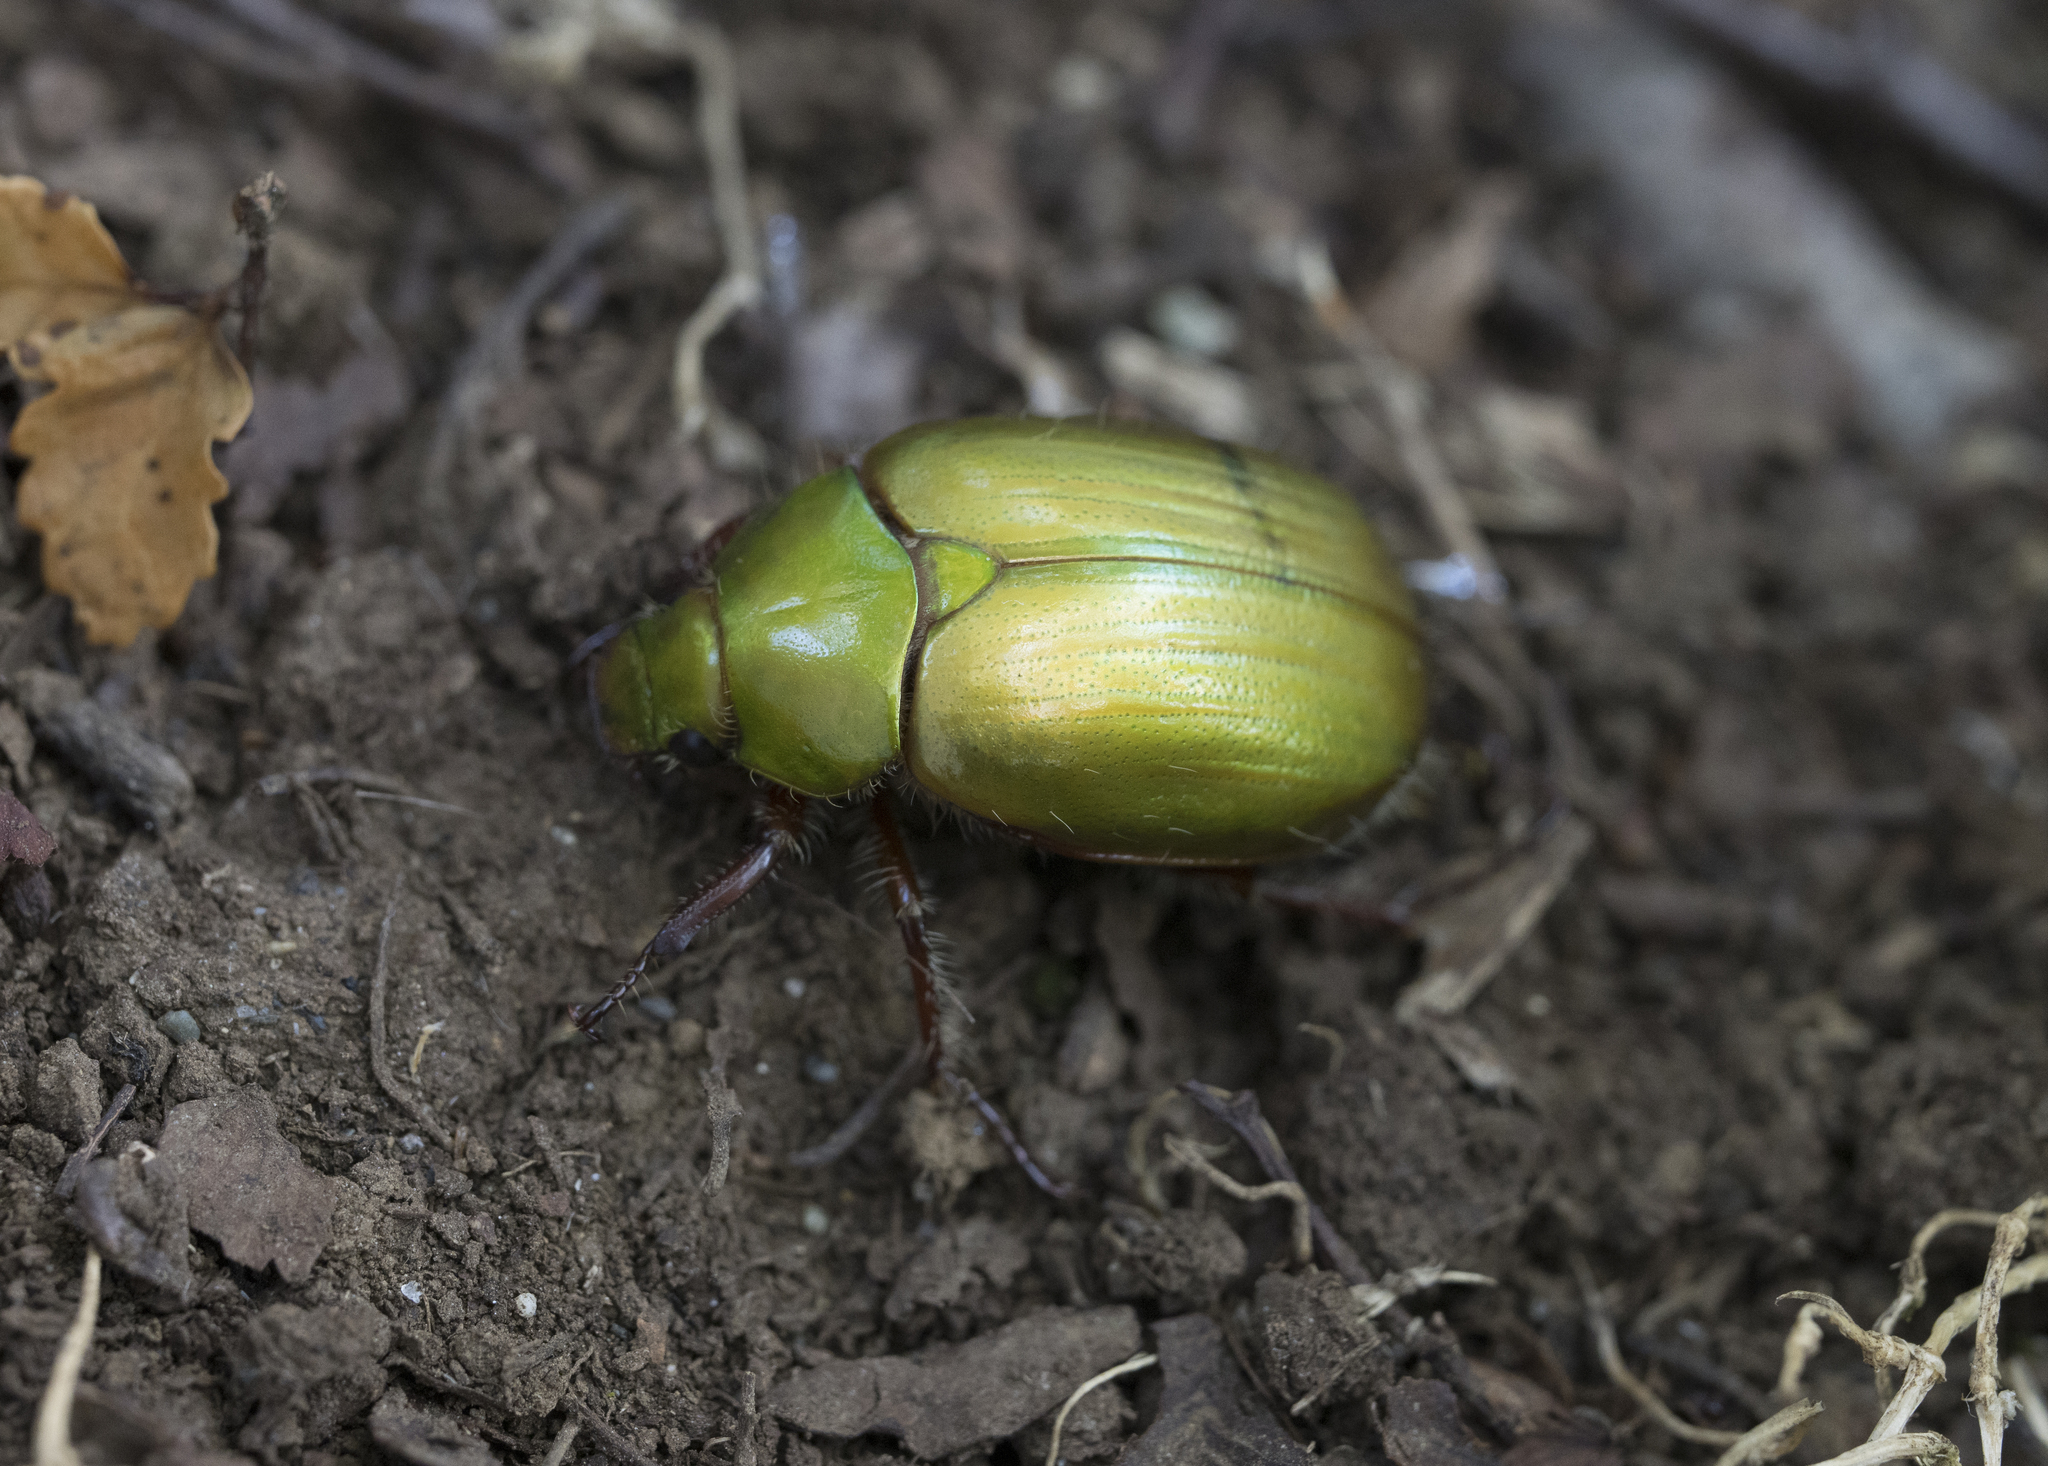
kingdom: Animalia
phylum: Arthropoda
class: Insecta
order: Coleoptera
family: Scarabaeidae
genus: Modialis
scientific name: Modialis prasinella
